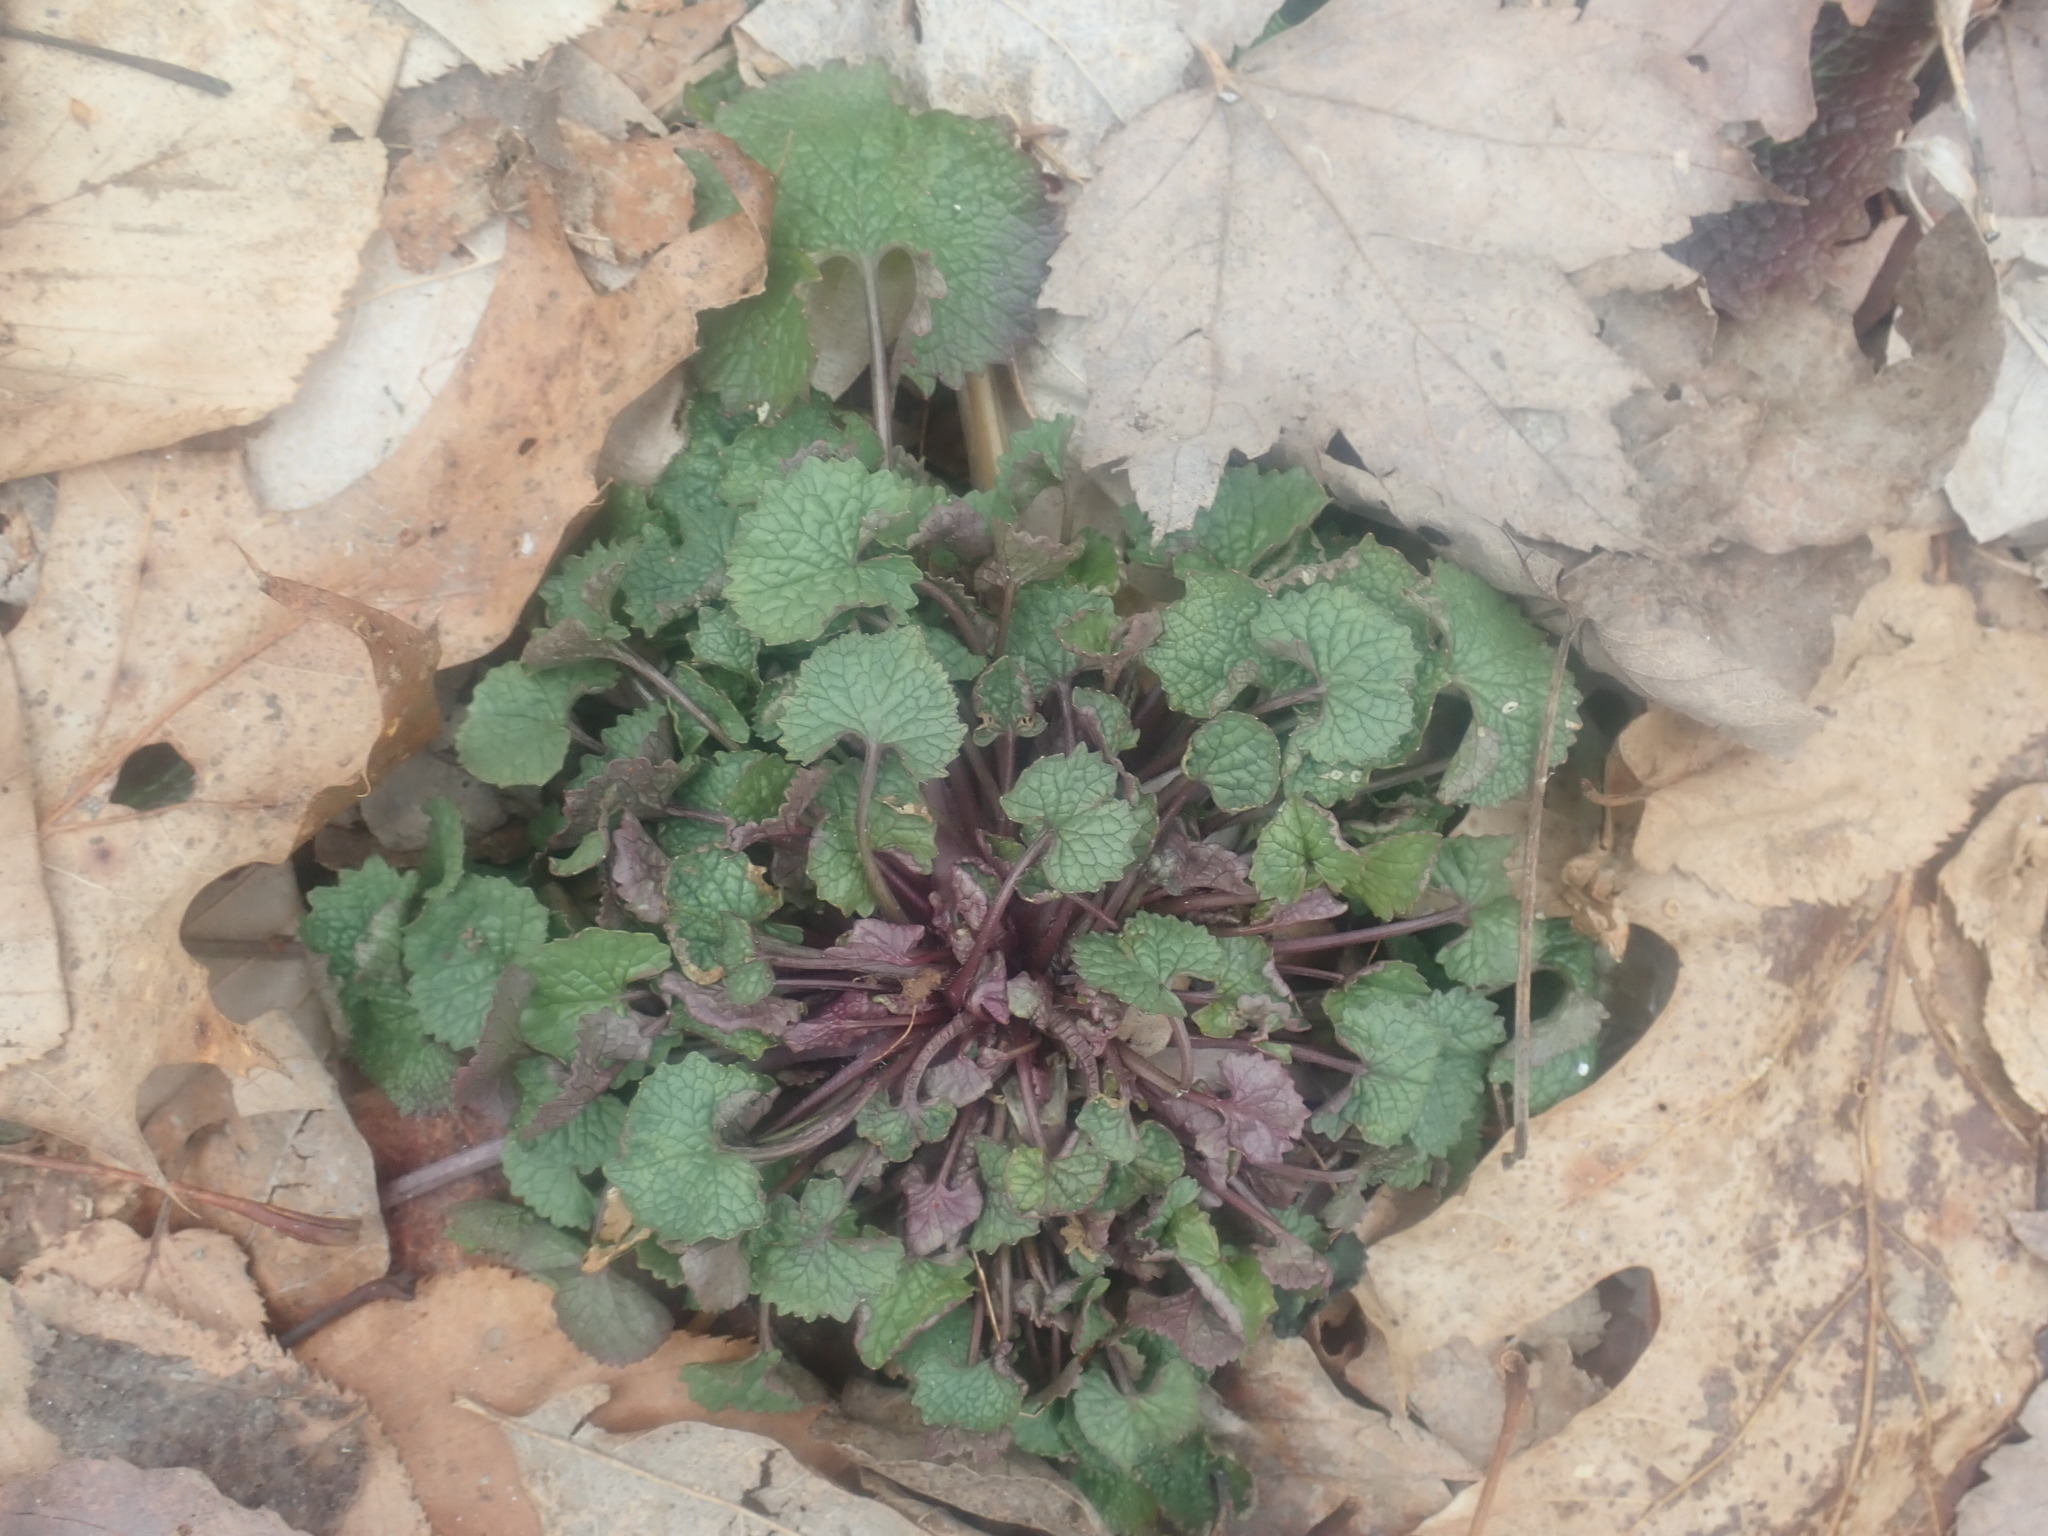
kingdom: Plantae
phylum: Tracheophyta
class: Magnoliopsida
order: Brassicales
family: Brassicaceae
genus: Alliaria
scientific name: Alliaria petiolata
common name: Garlic mustard
